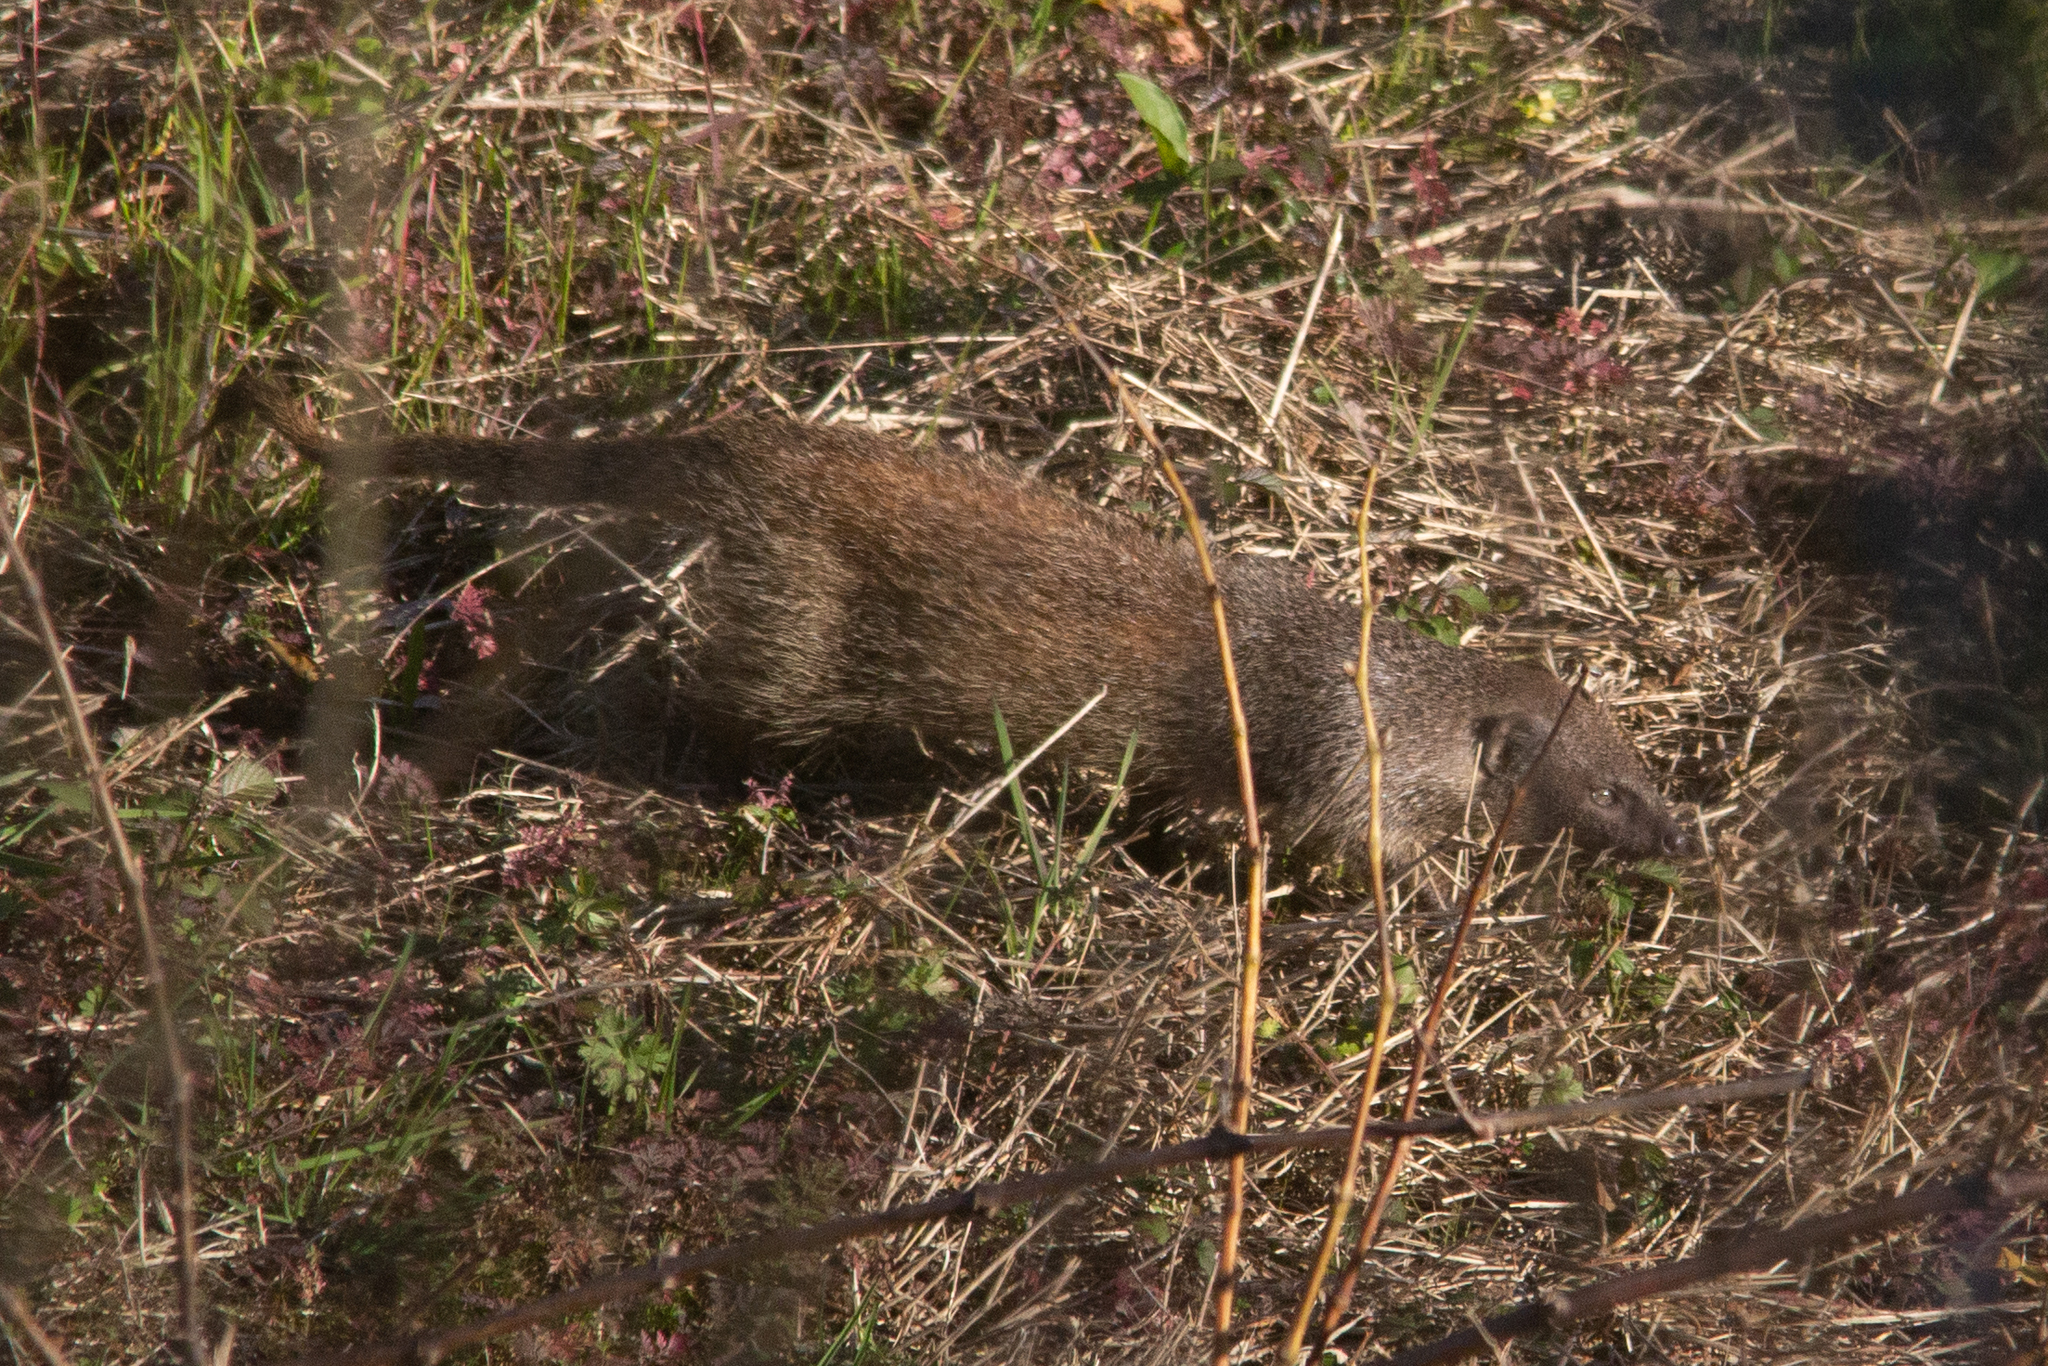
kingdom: Animalia
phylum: Chordata
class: Mammalia
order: Carnivora
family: Herpestidae
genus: Herpestes
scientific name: Herpestes ichneumon
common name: Egyptian mongoose
